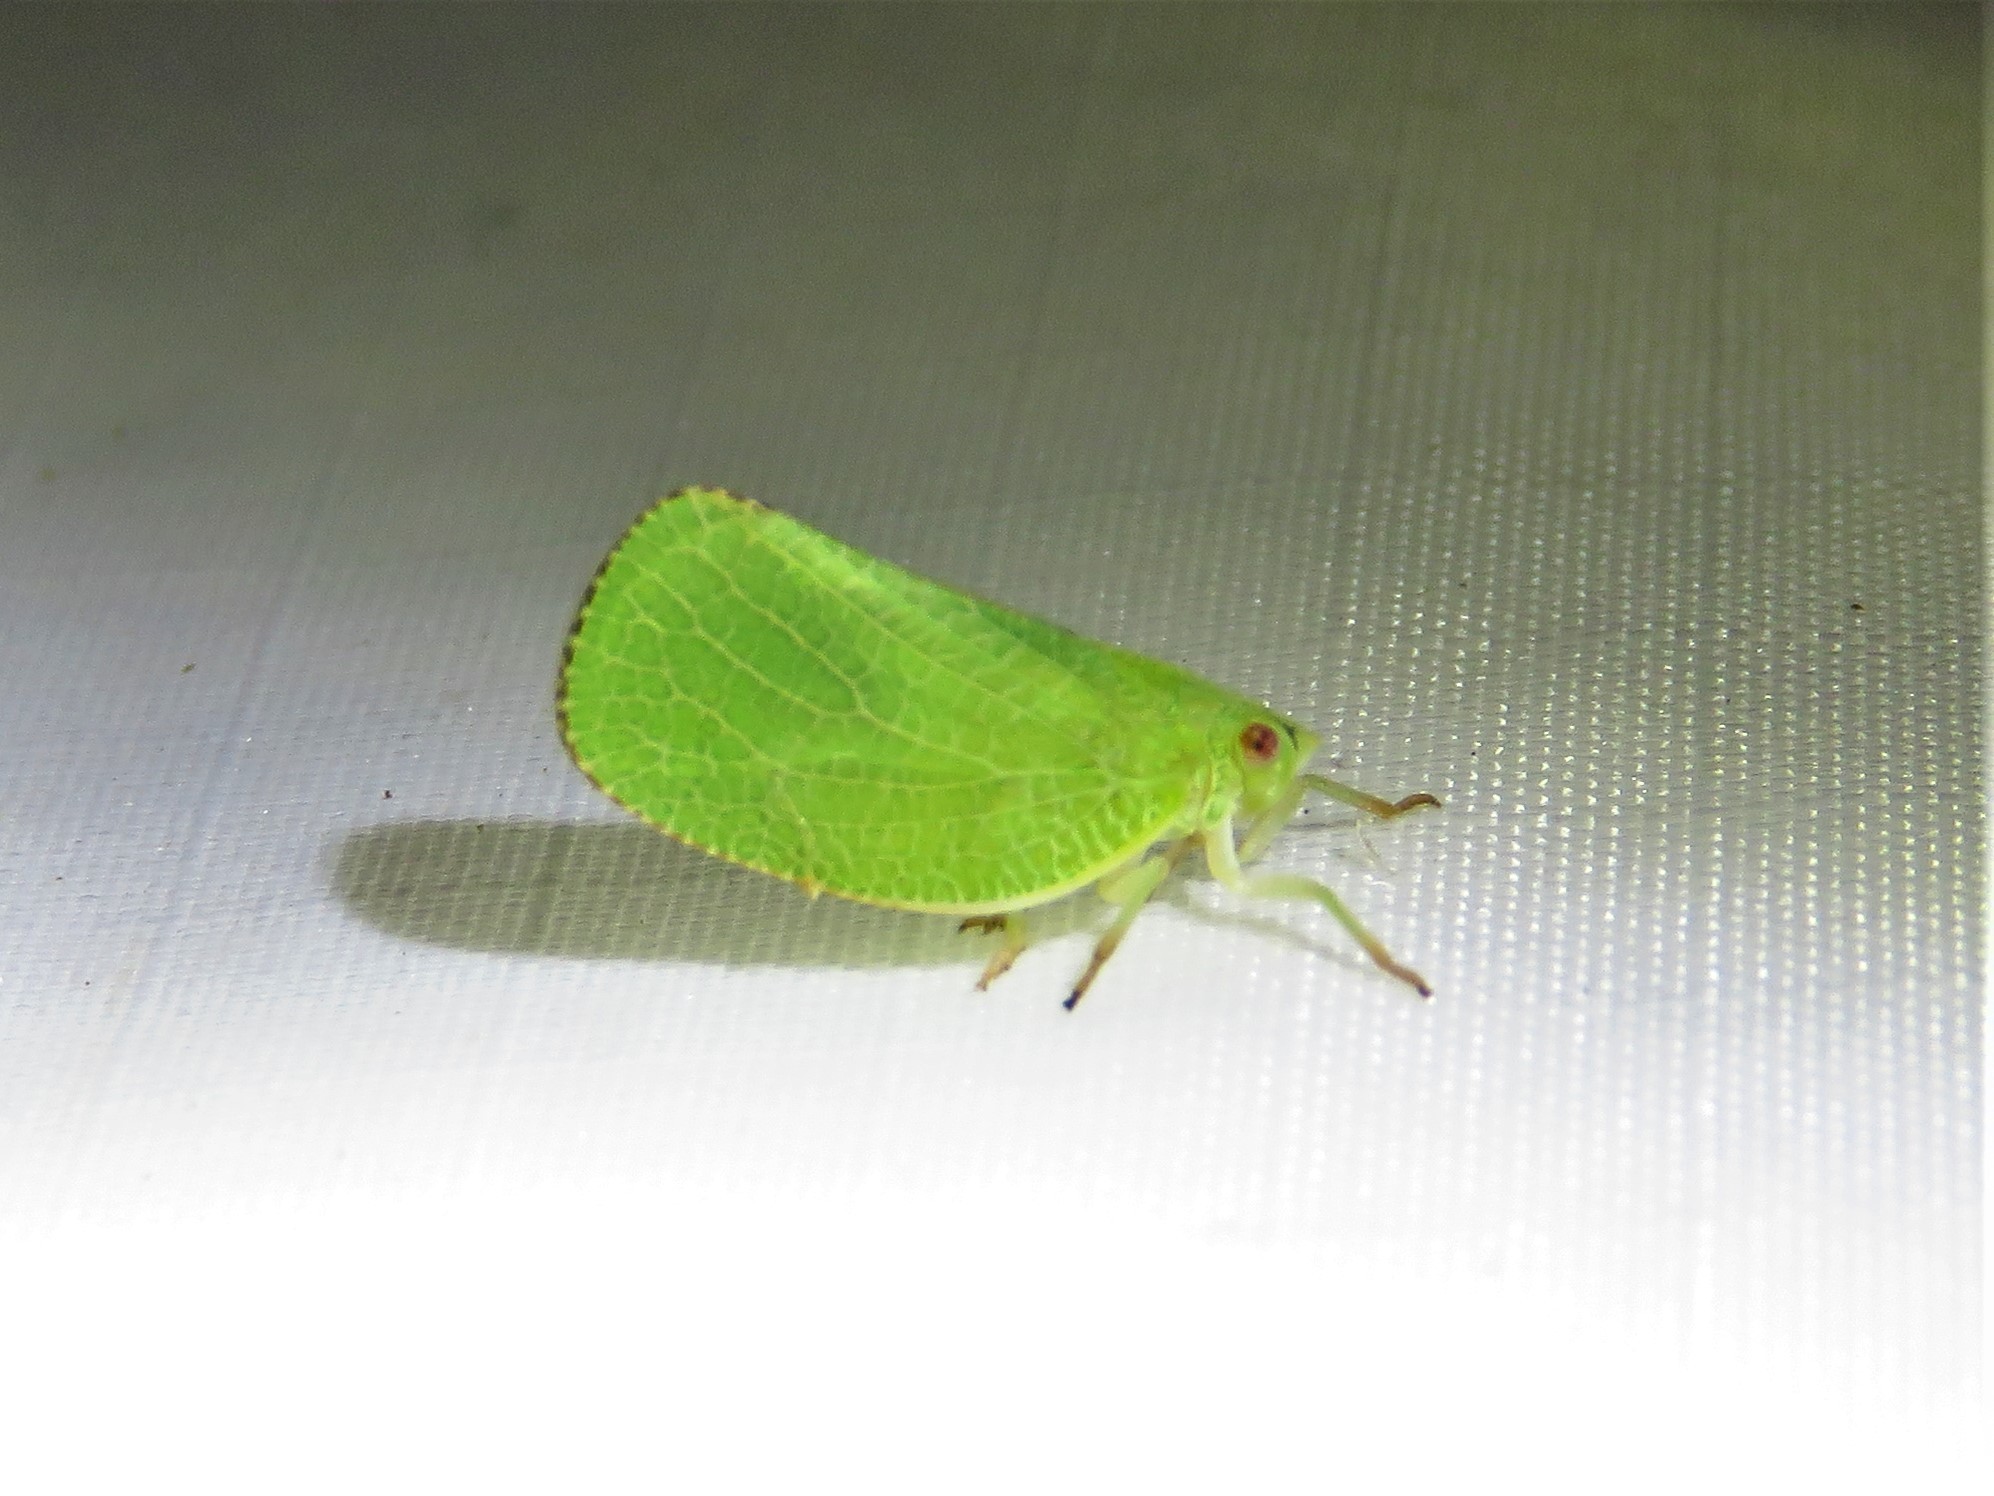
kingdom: Animalia
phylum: Arthropoda
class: Insecta
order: Hemiptera
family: Acanaloniidae
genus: Acanalonia
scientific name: Acanalonia conica
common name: Green cone-headed planthopper
